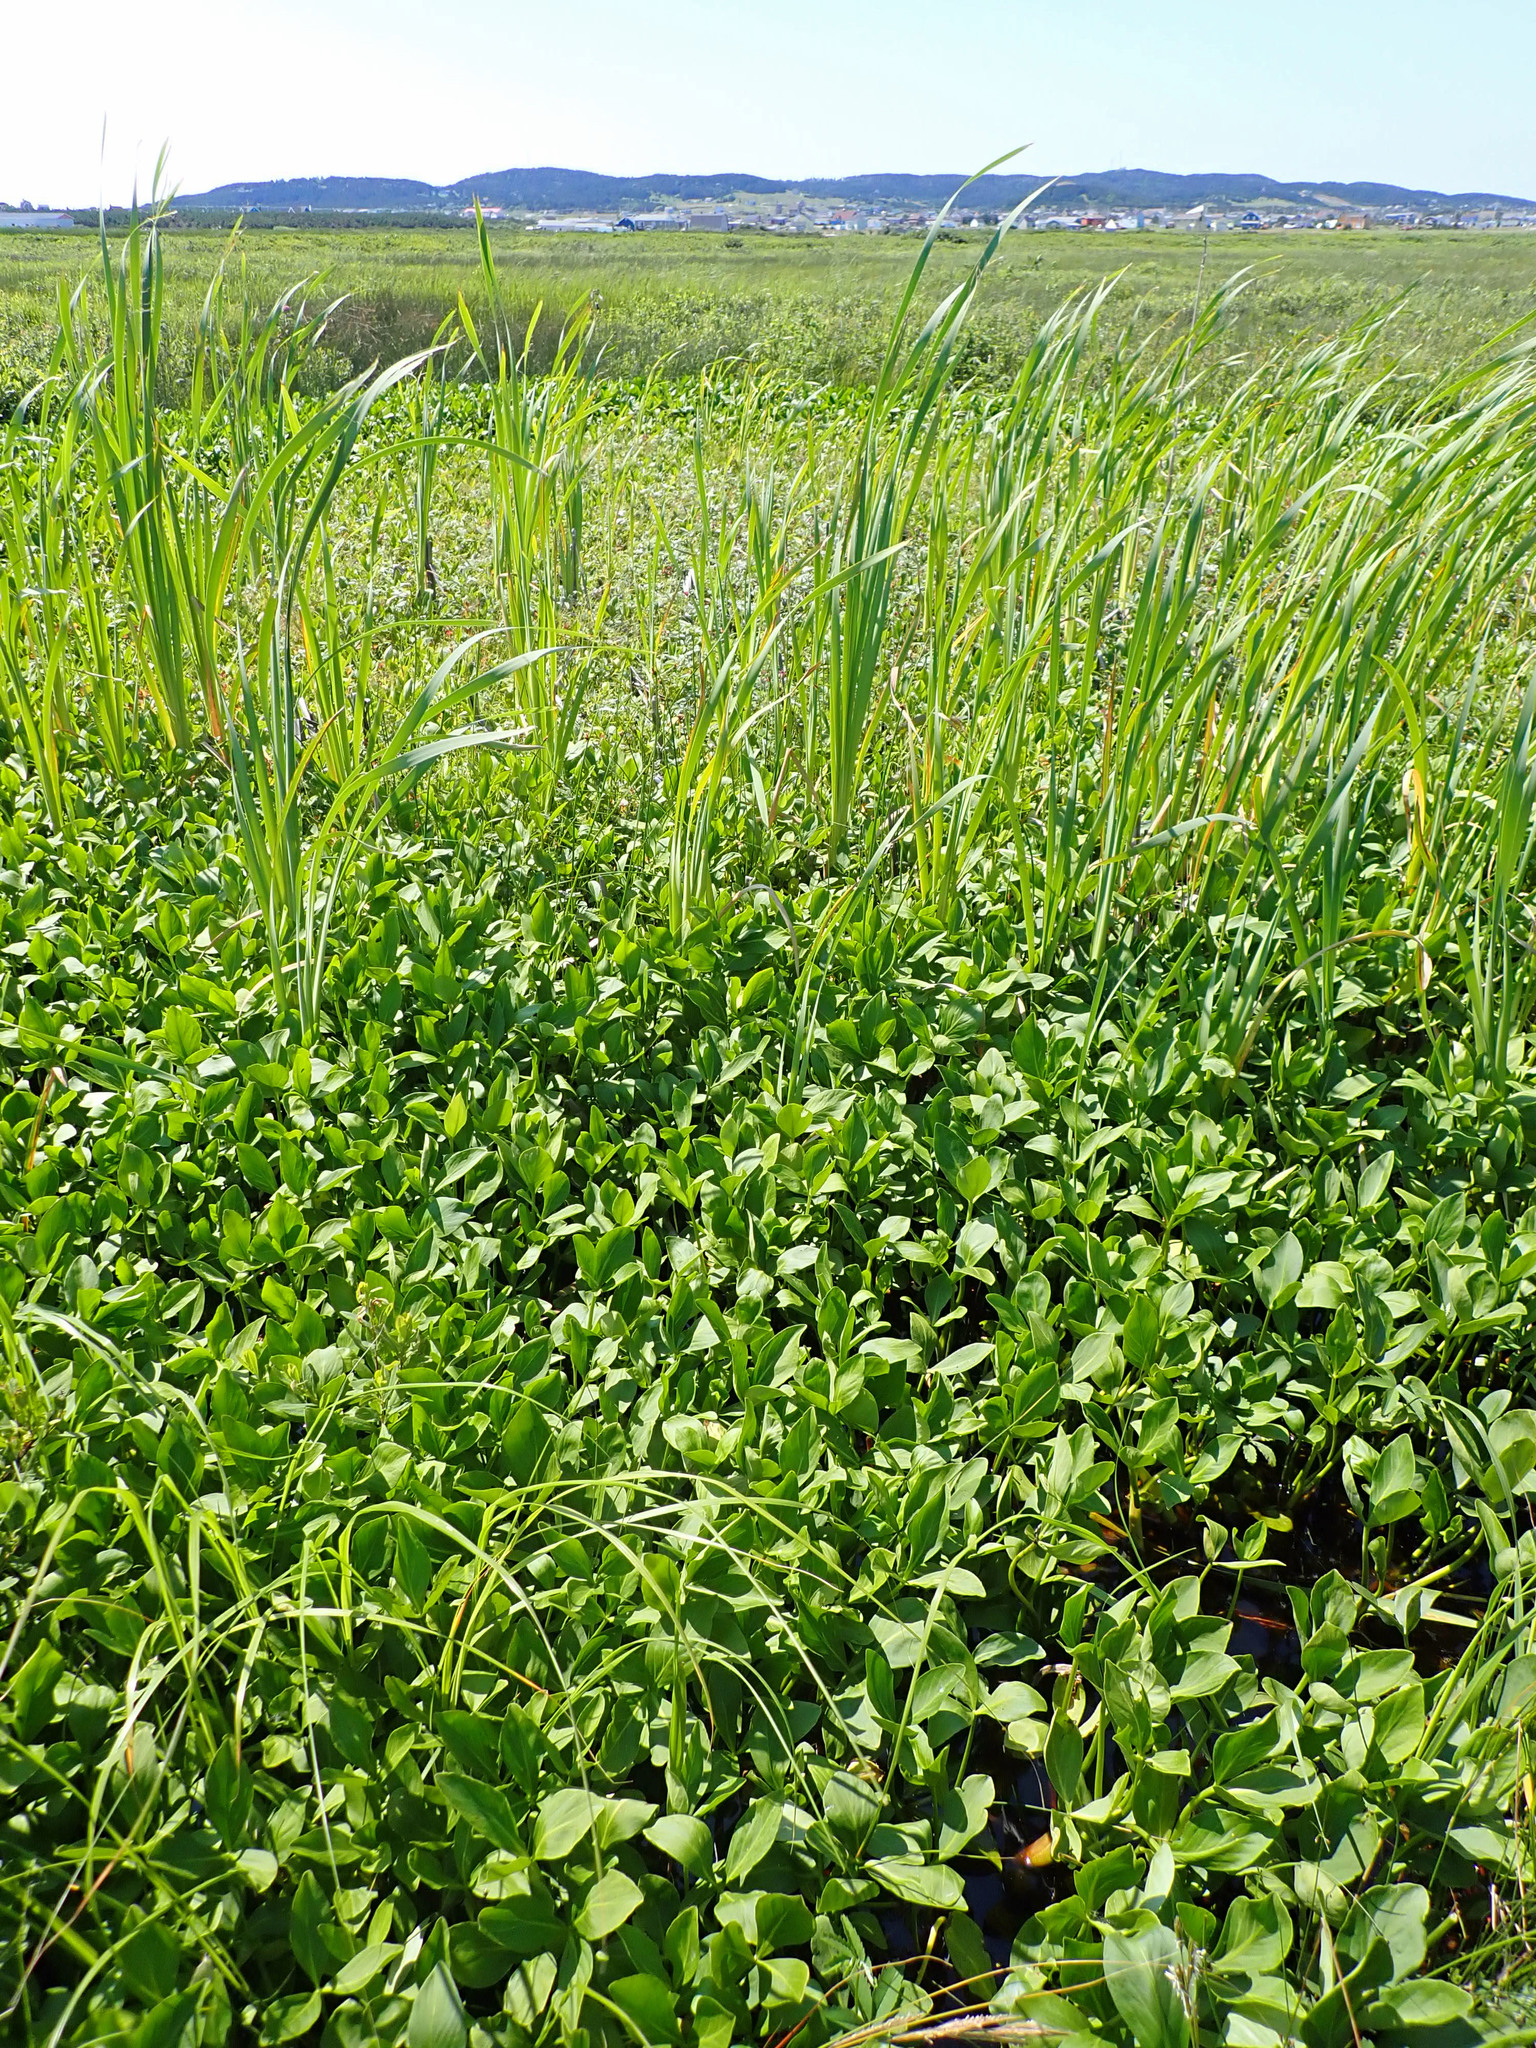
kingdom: Plantae
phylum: Tracheophyta
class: Magnoliopsida
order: Asterales
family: Menyanthaceae
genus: Menyanthes
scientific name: Menyanthes trifoliata
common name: Bogbean
